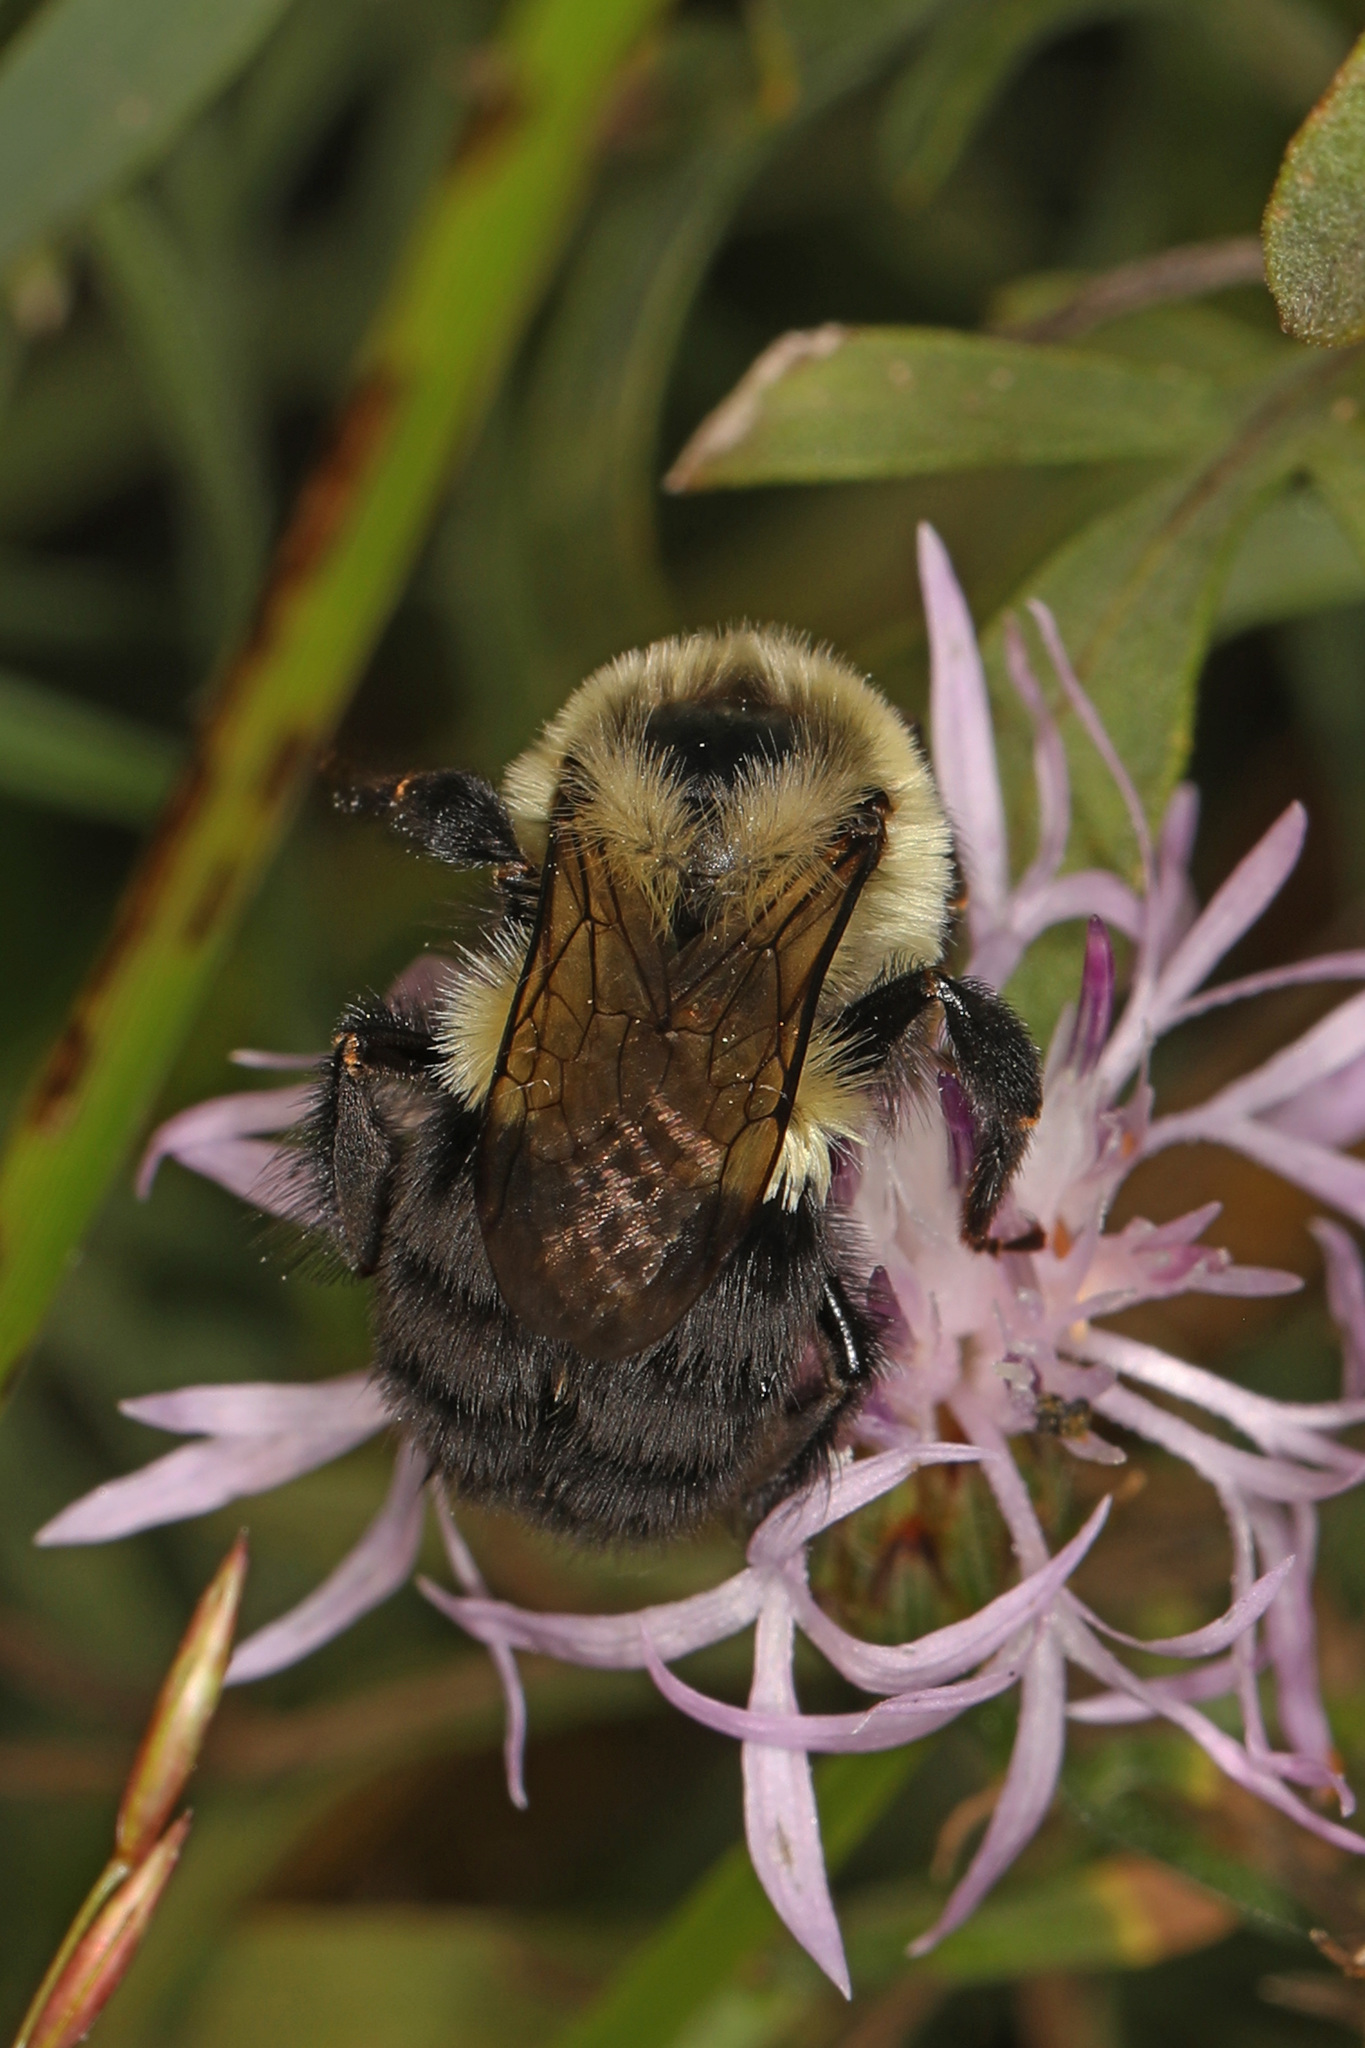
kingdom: Animalia
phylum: Arthropoda
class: Insecta
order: Hymenoptera
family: Apidae
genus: Bombus
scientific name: Bombus impatiens
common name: Common eastern bumble bee
